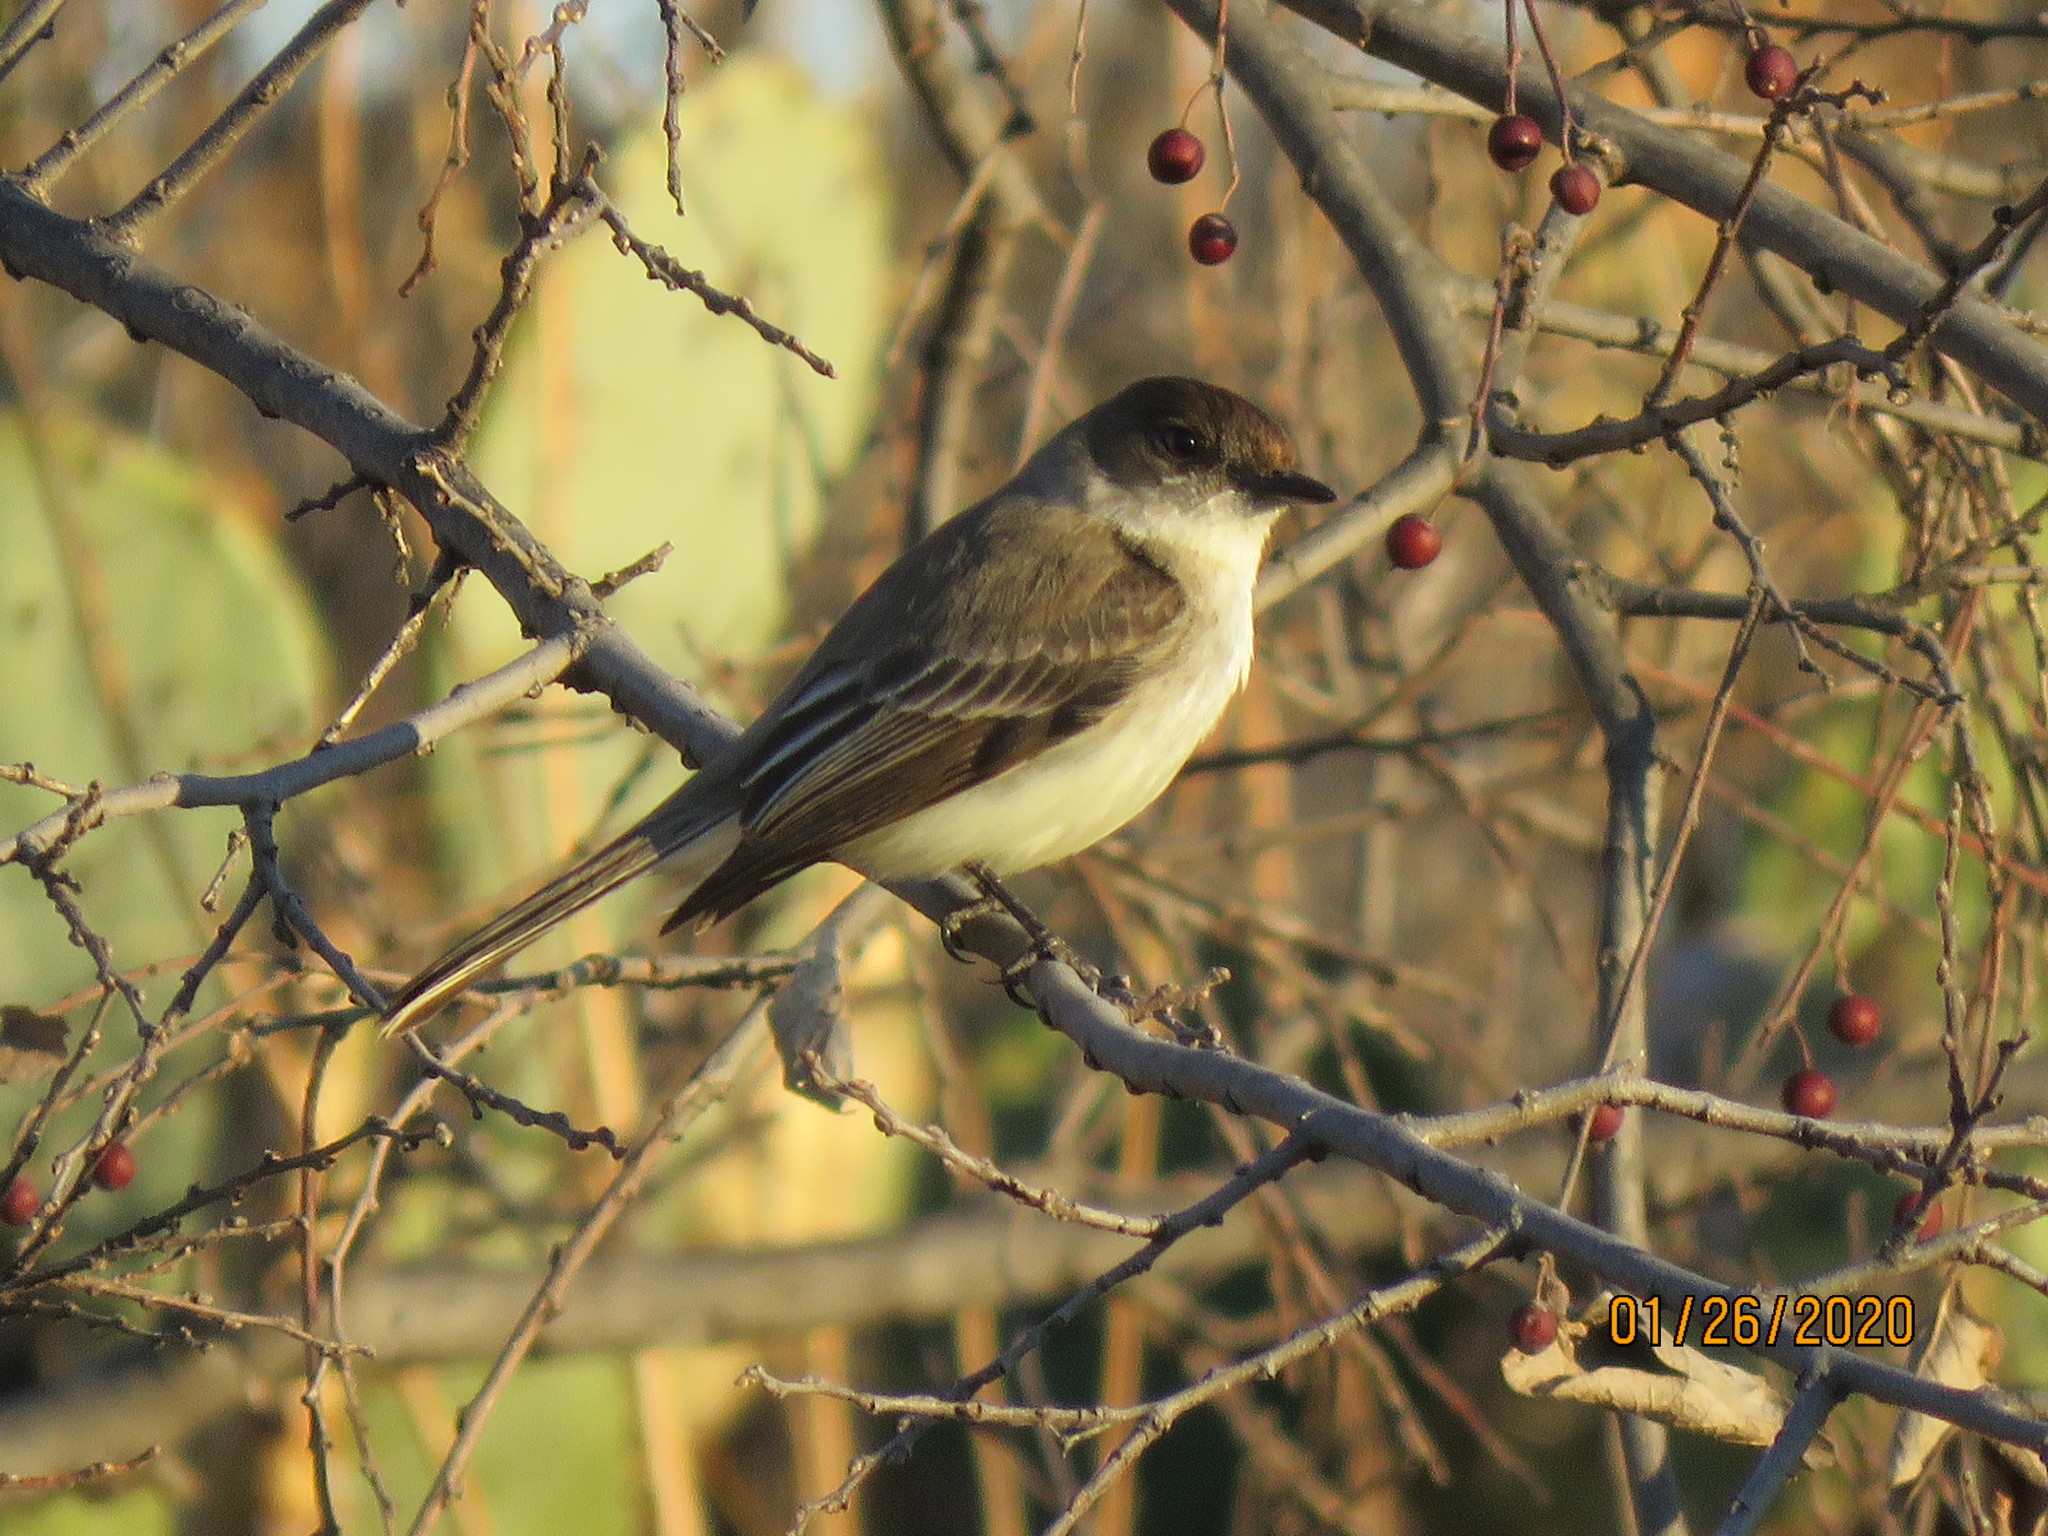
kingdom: Animalia
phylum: Chordata
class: Aves
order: Passeriformes
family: Tyrannidae
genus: Sayornis
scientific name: Sayornis phoebe
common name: Eastern phoebe
